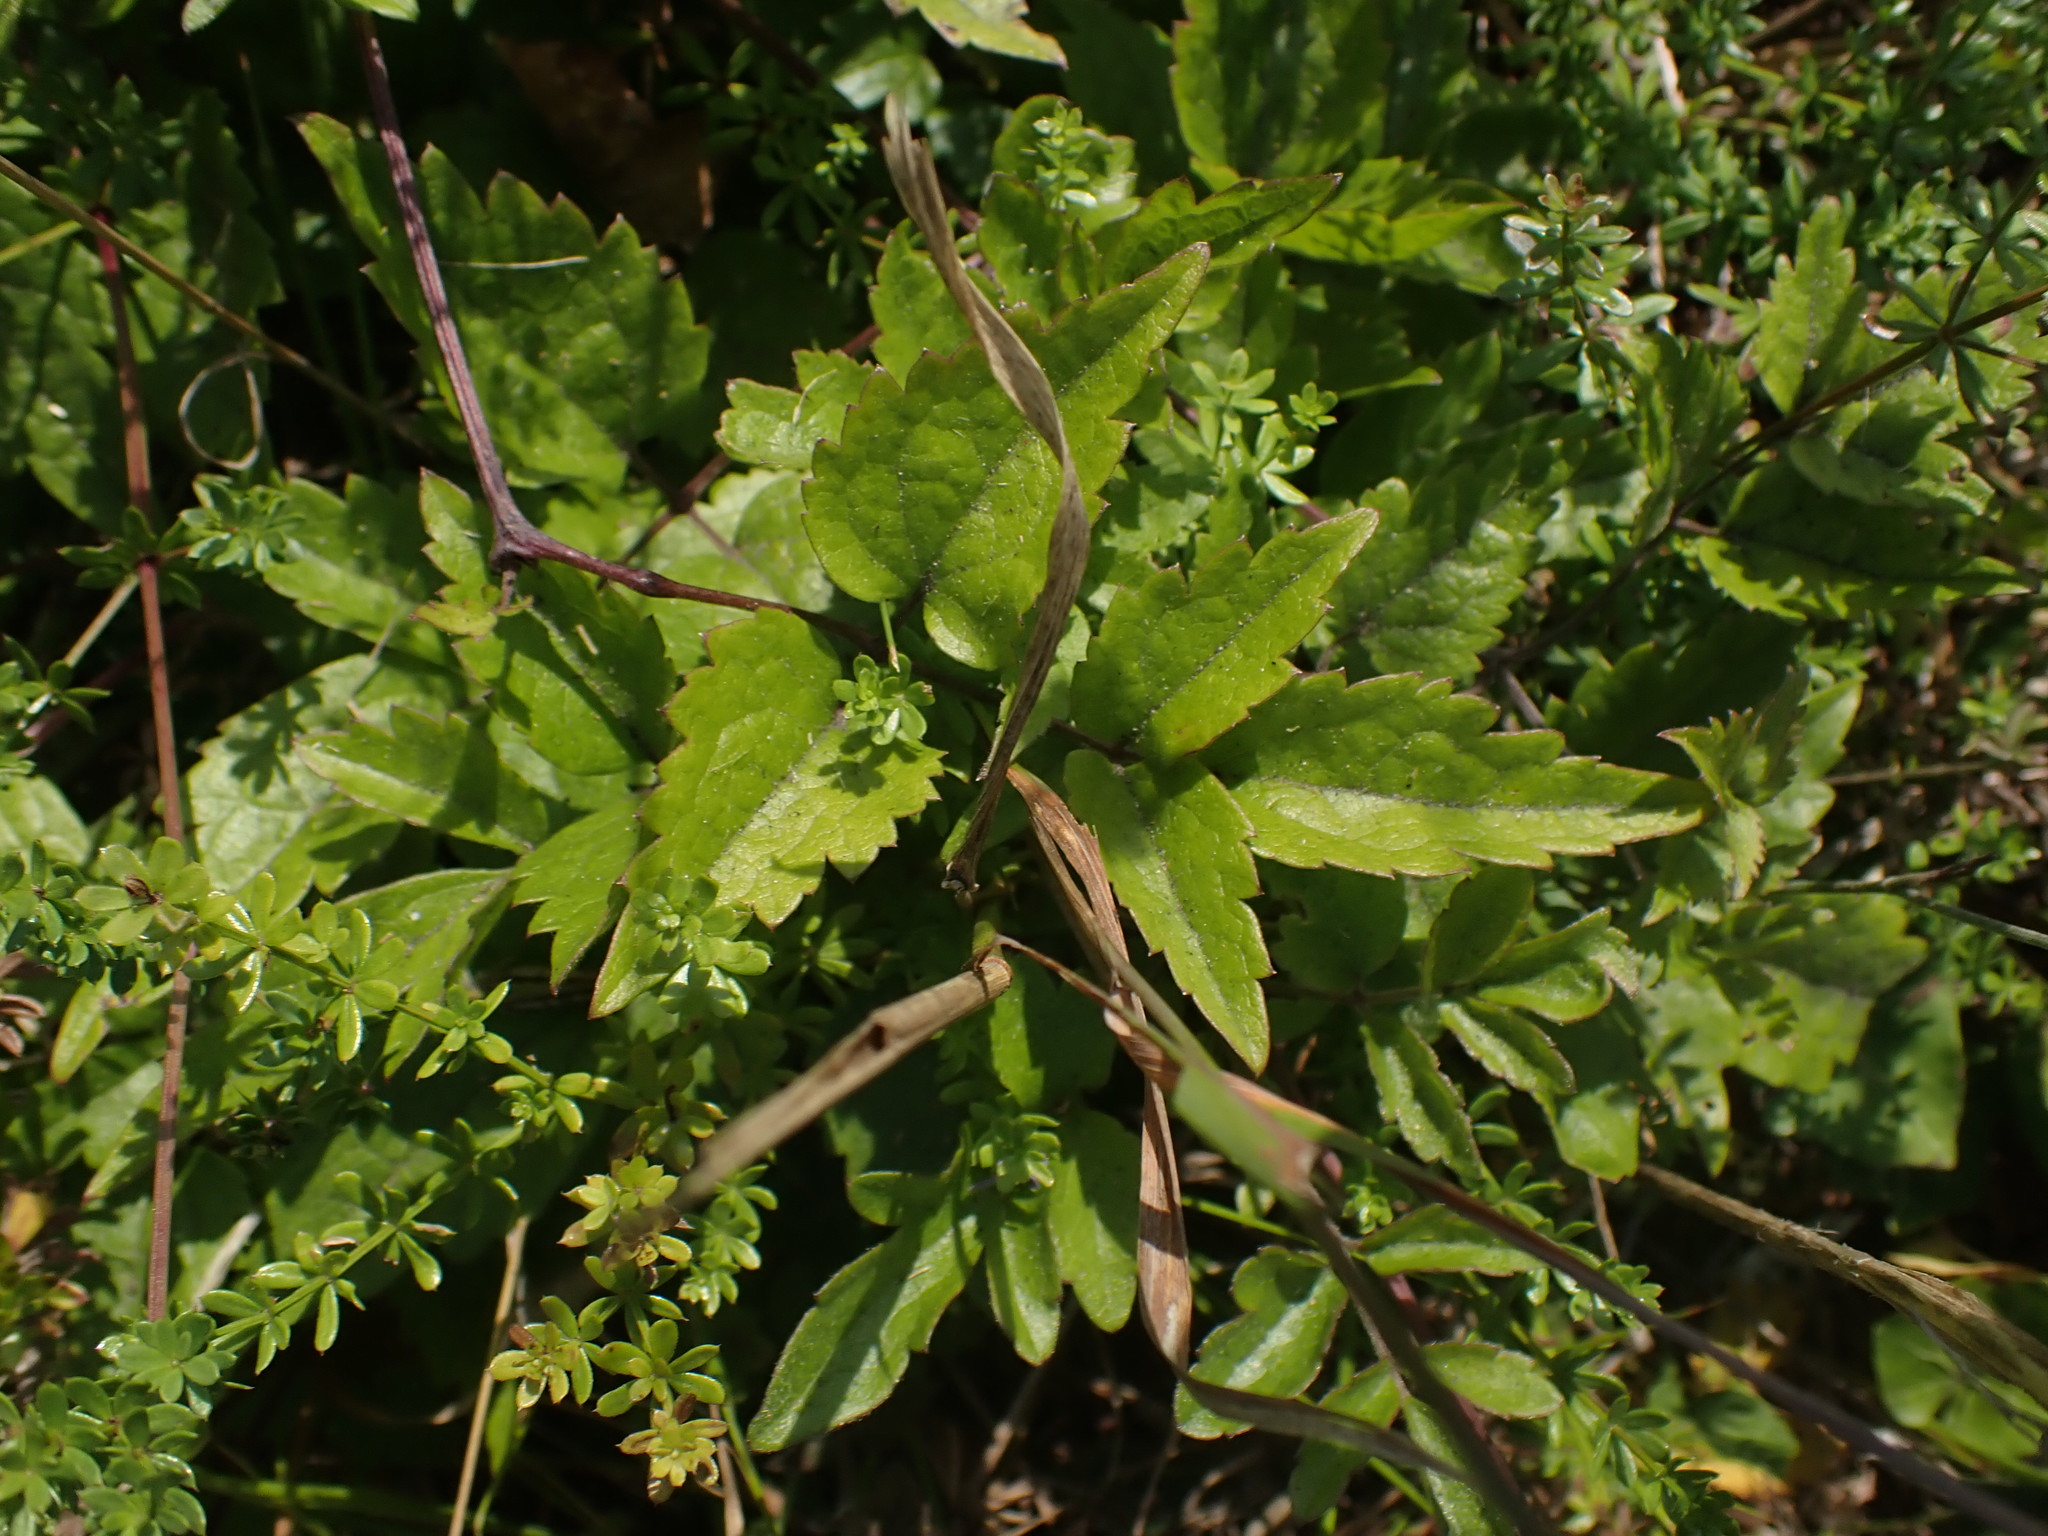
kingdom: Plantae
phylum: Tracheophyta
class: Magnoliopsida
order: Ranunculales
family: Ranunculaceae
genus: Clematis
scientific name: Clematis vitalba
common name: Evergreen clematis
